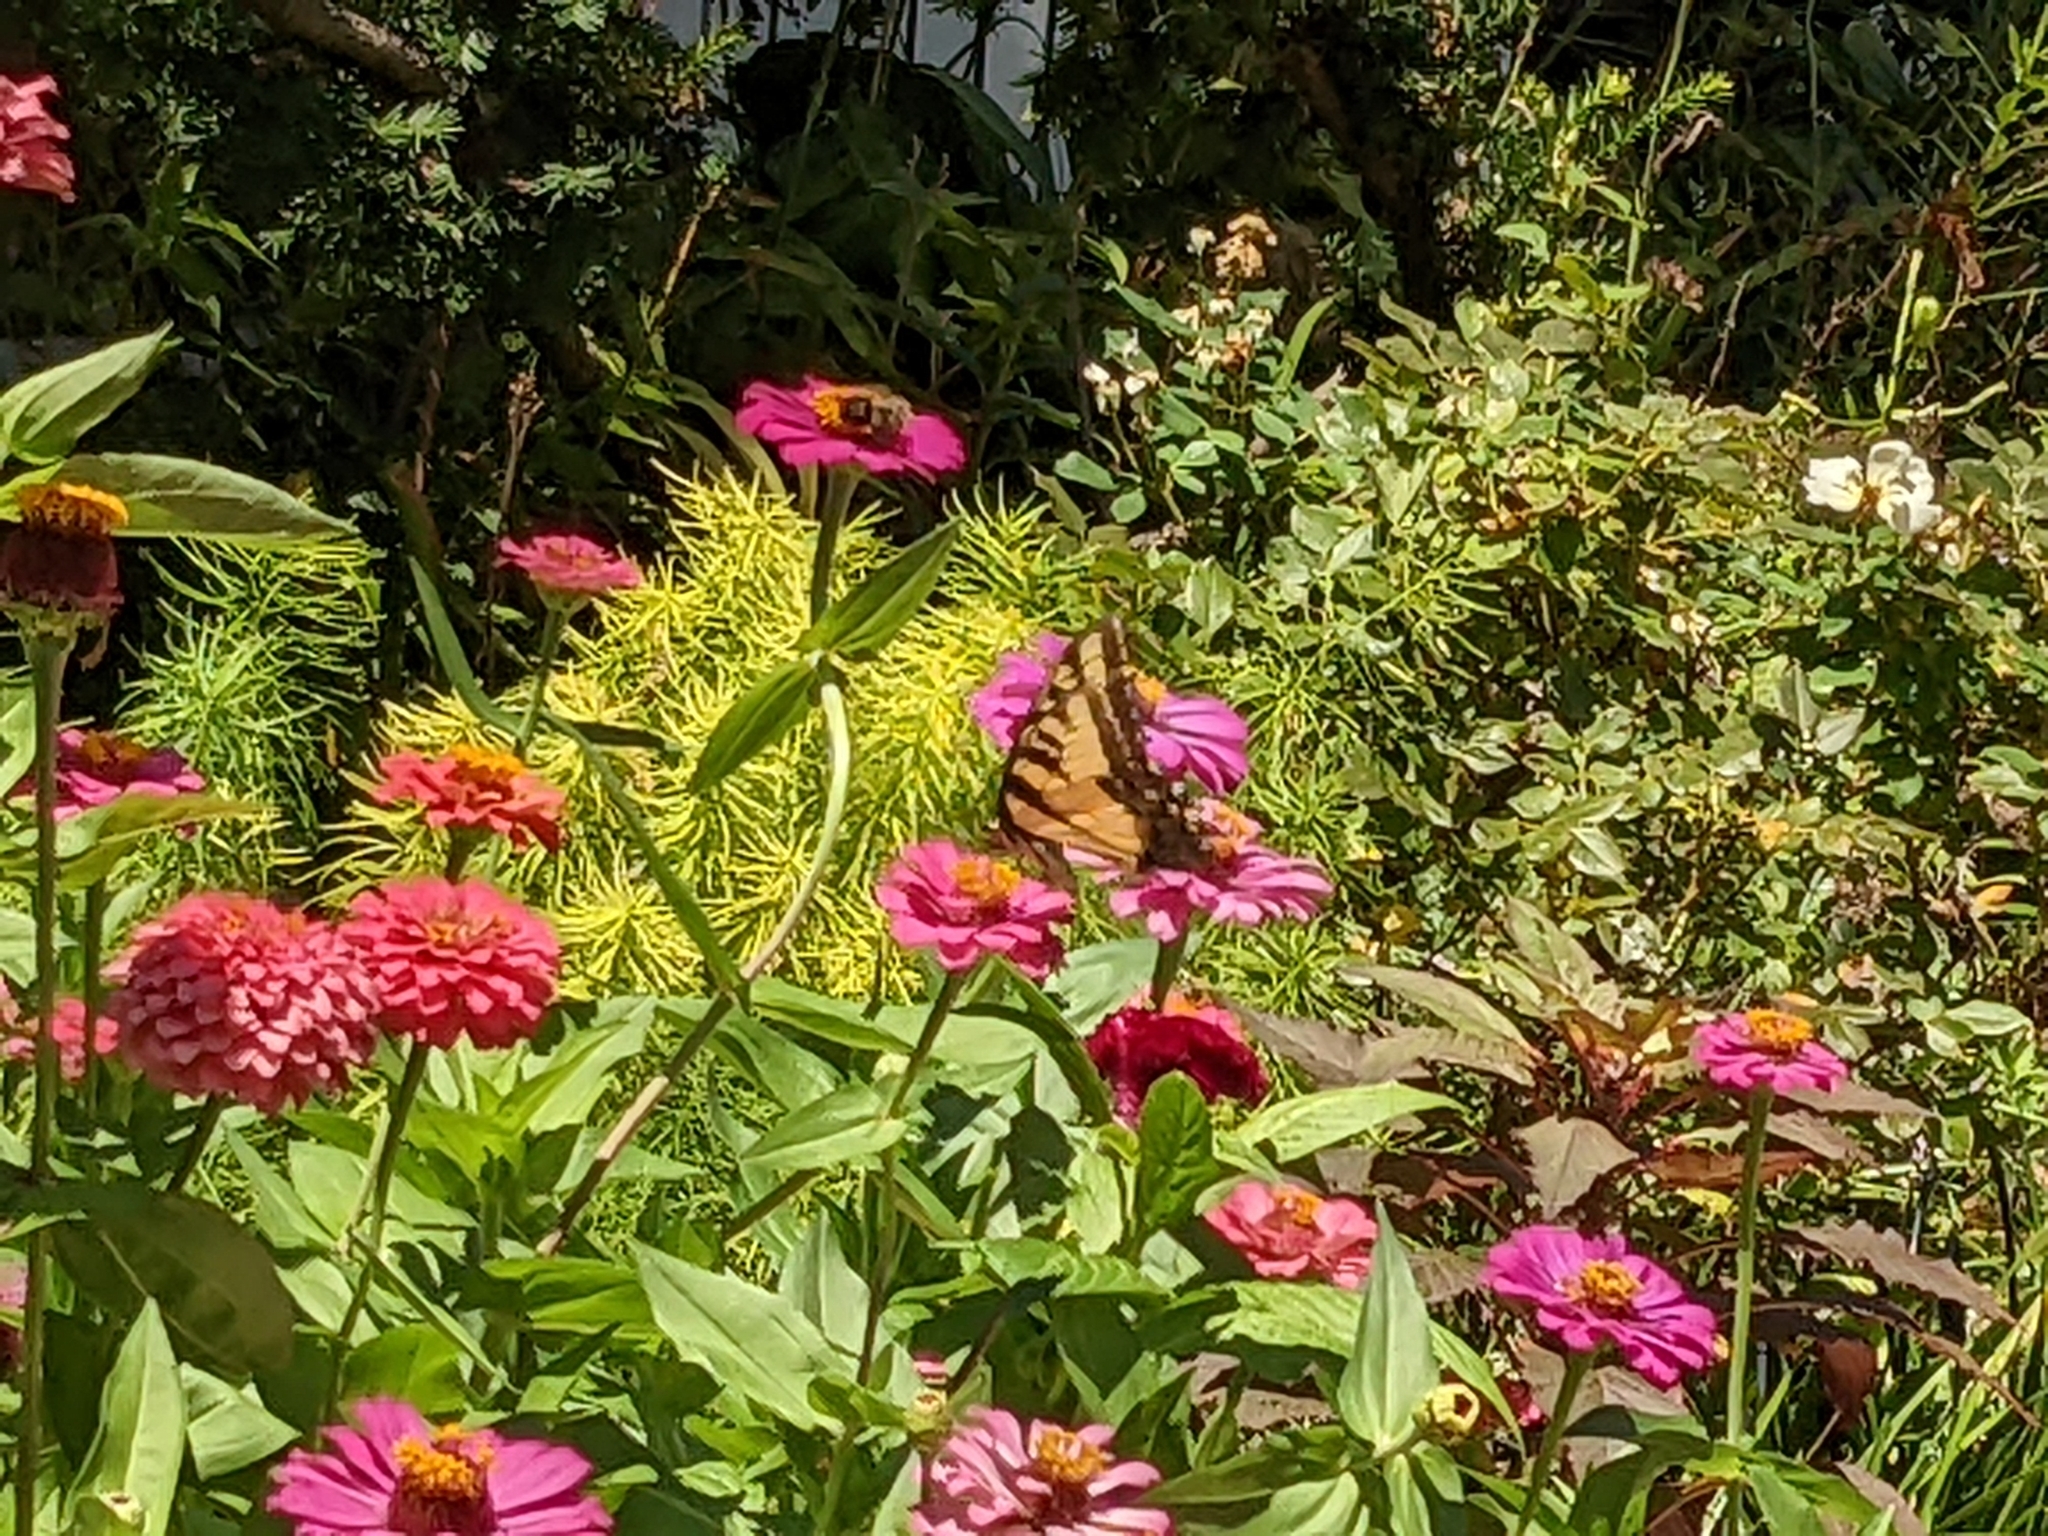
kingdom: Animalia
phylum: Arthropoda
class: Insecta
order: Lepidoptera
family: Papilionidae
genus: Papilio
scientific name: Papilio glaucus
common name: Tiger swallowtail
